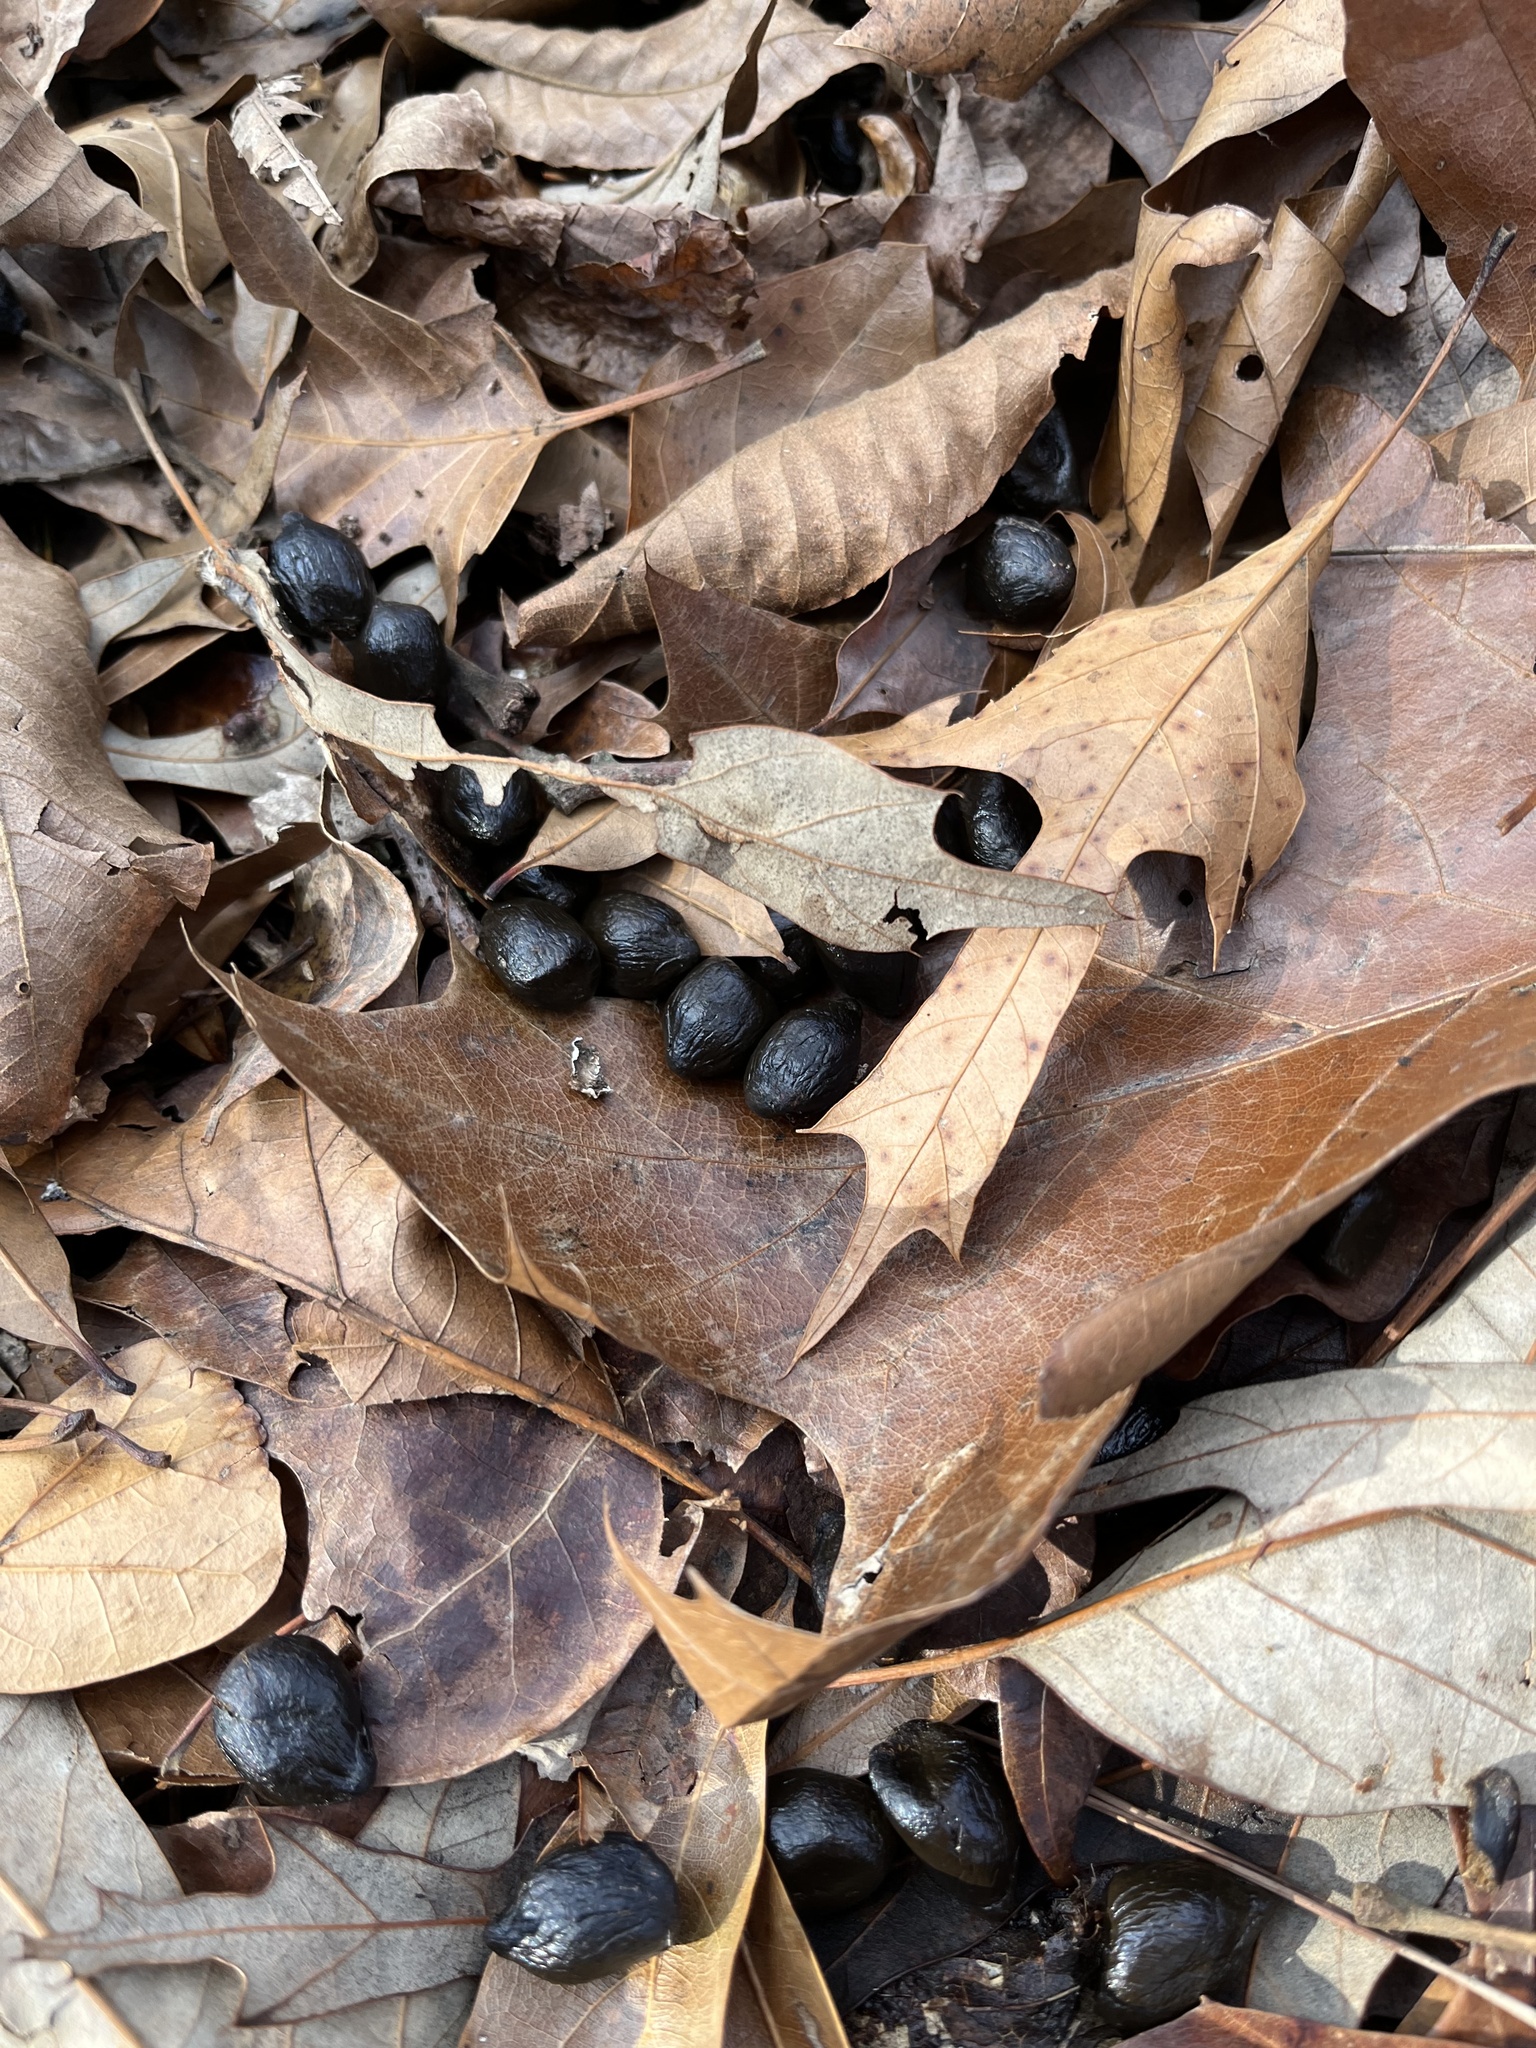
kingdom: Animalia
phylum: Chordata
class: Mammalia
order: Artiodactyla
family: Cervidae
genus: Odocoileus
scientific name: Odocoileus virginianus
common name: White-tailed deer
